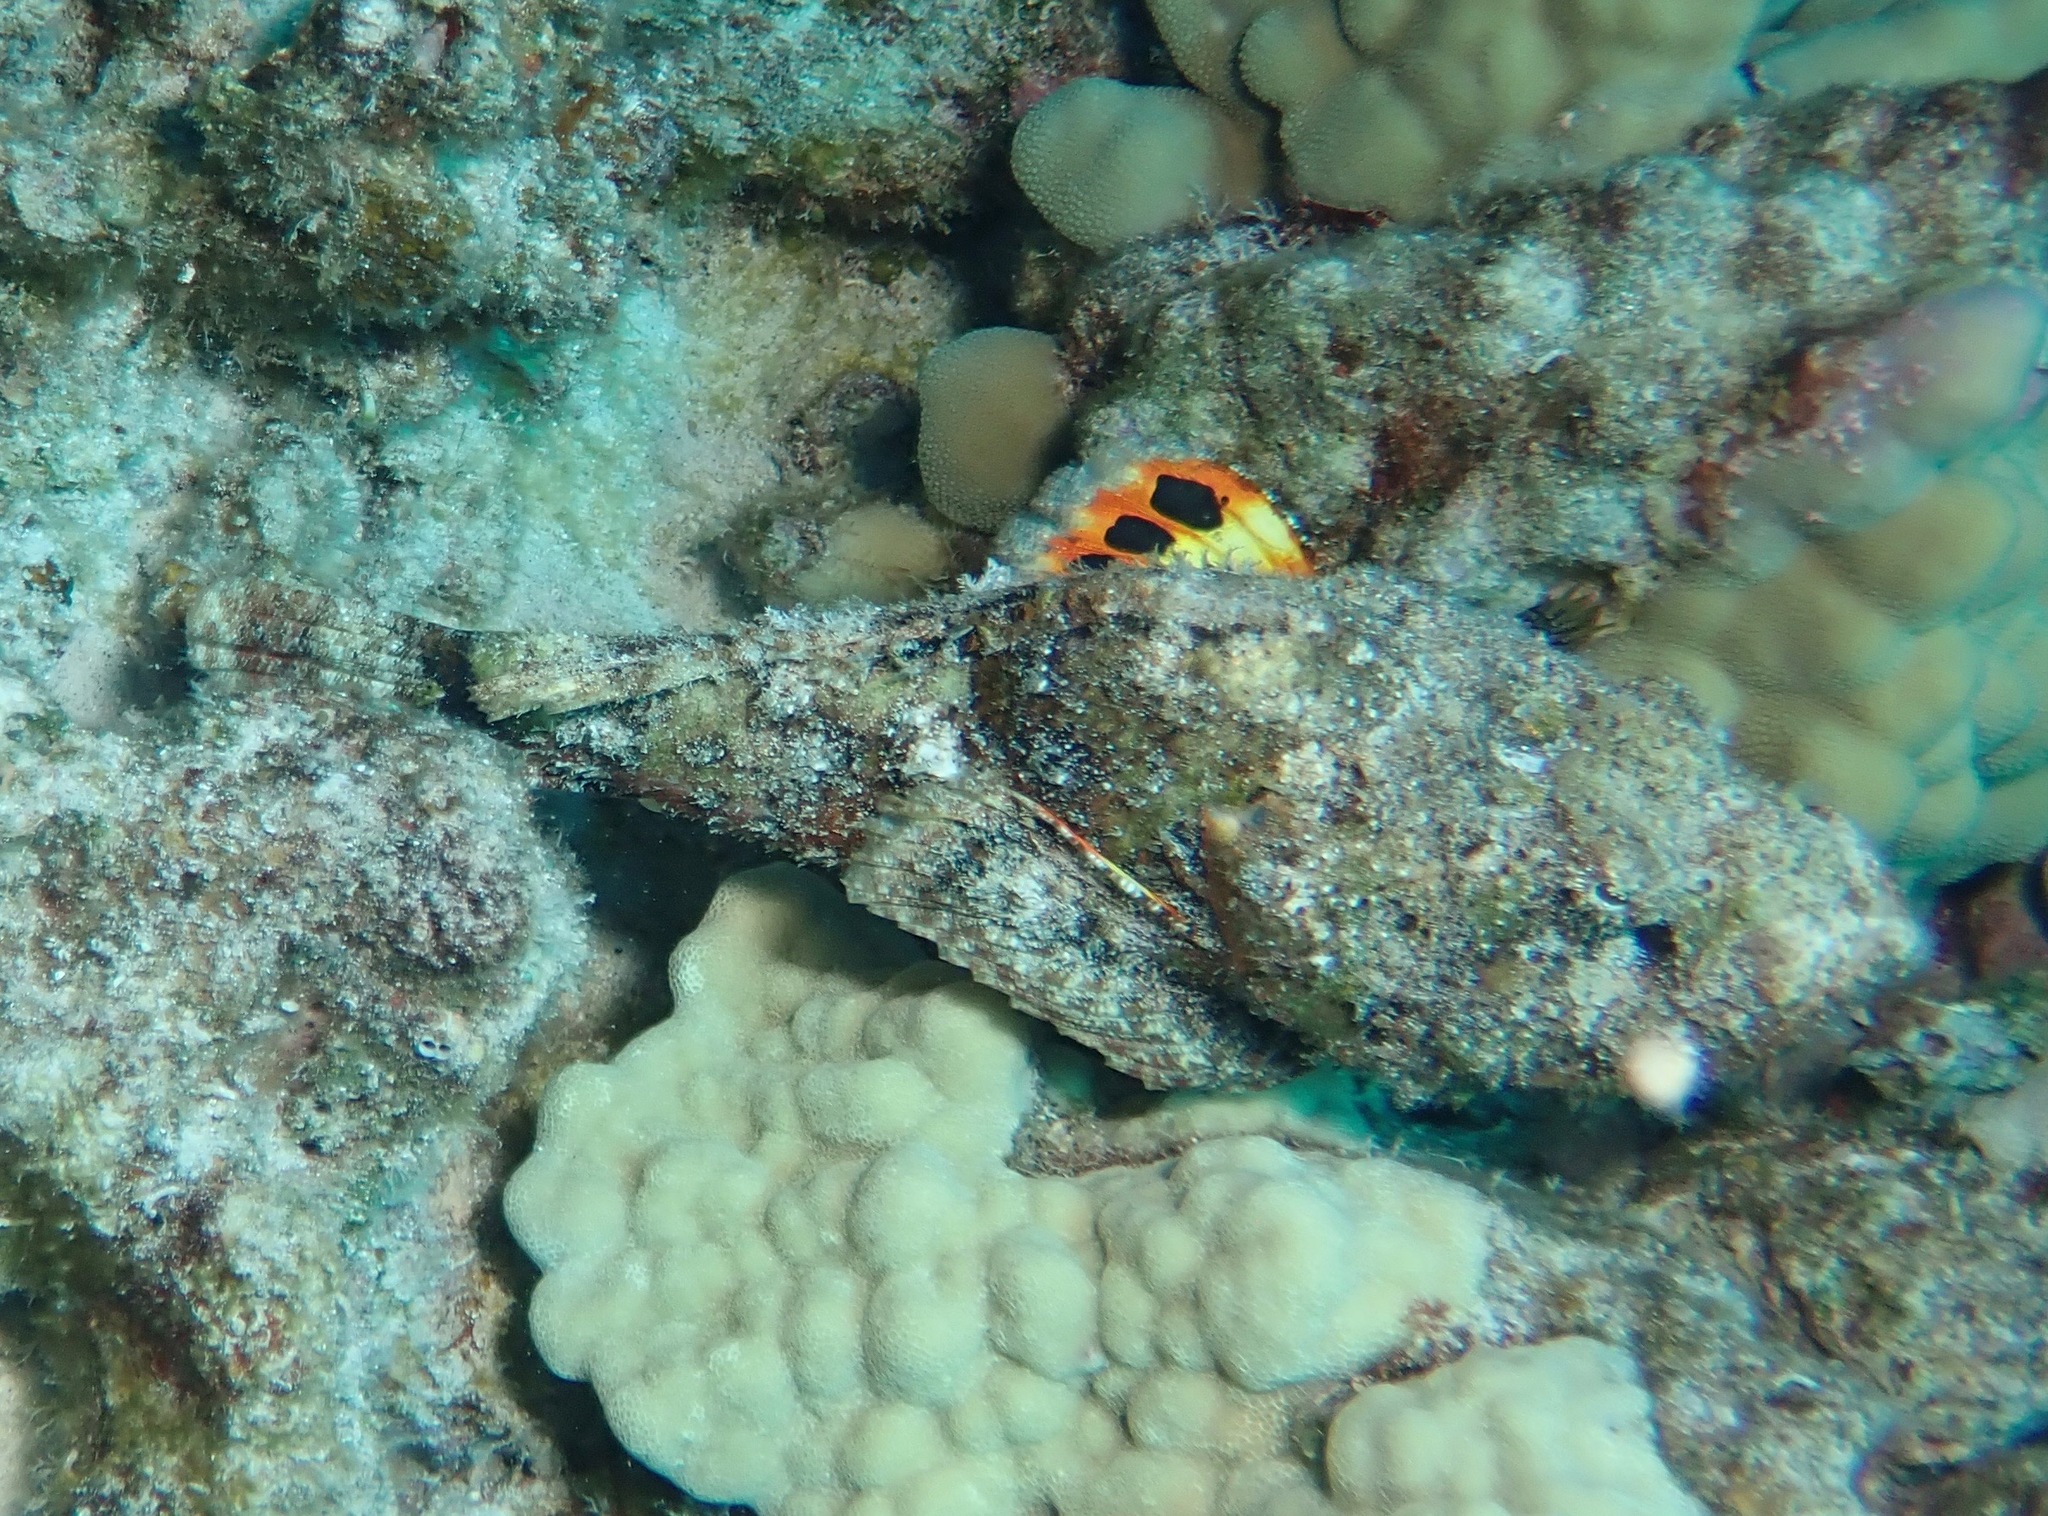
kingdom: Animalia
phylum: Chordata
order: Scorpaeniformes
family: Scorpaenidae
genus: Scorpaenopsis
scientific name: Scorpaenopsis diabolus
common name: False stonefish
